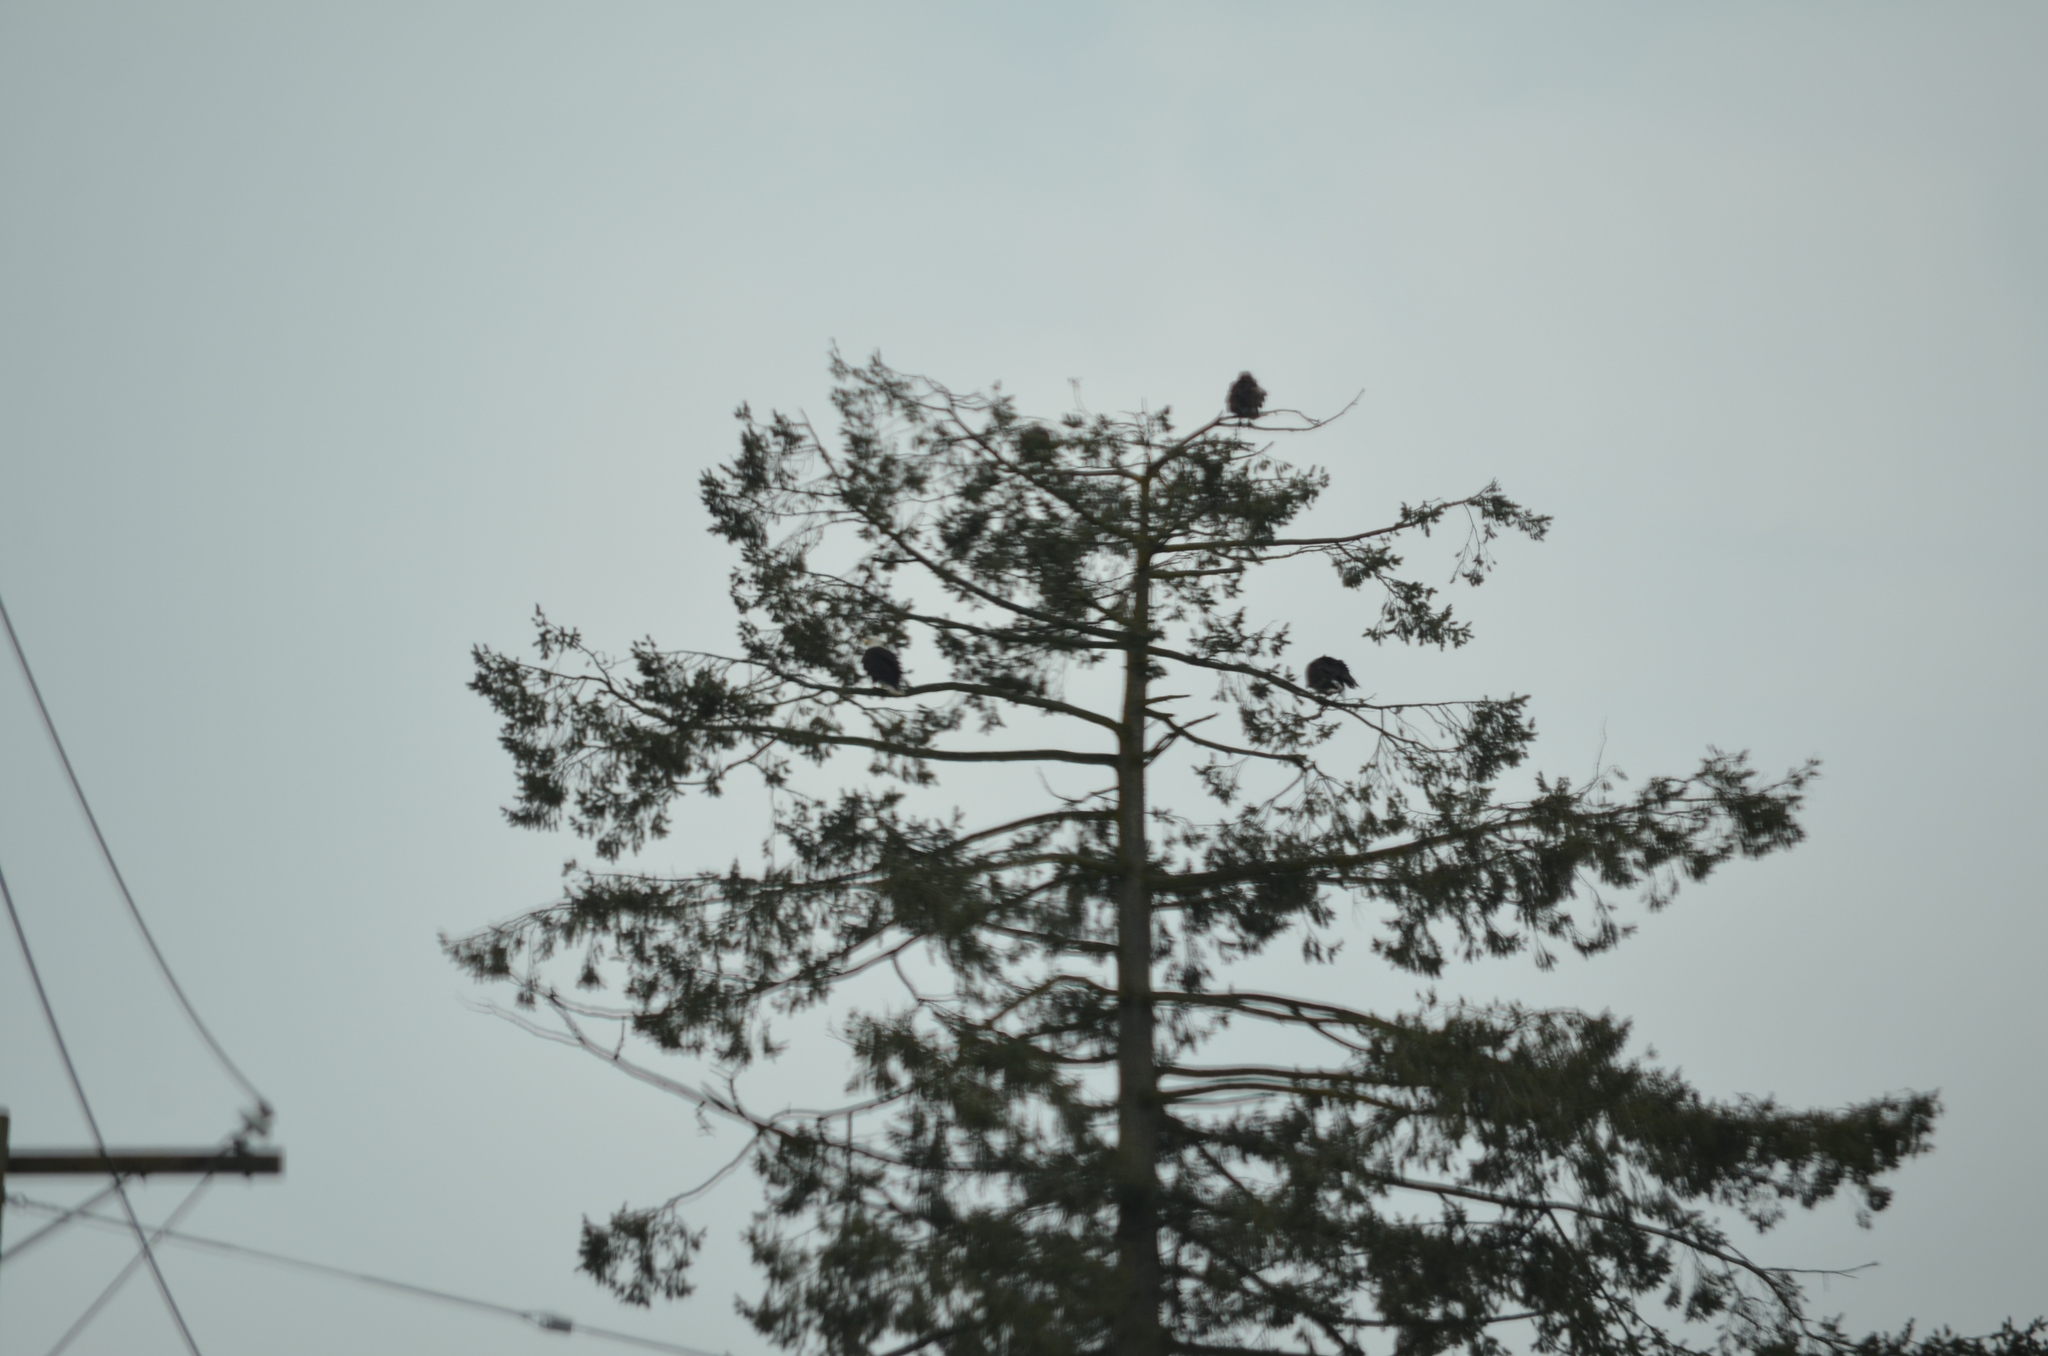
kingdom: Animalia
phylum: Chordata
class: Aves
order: Accipitriformes
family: Accipitridae
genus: Haliaeetus
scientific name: Haliaeetus leucocephalus
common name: Bald eagle
